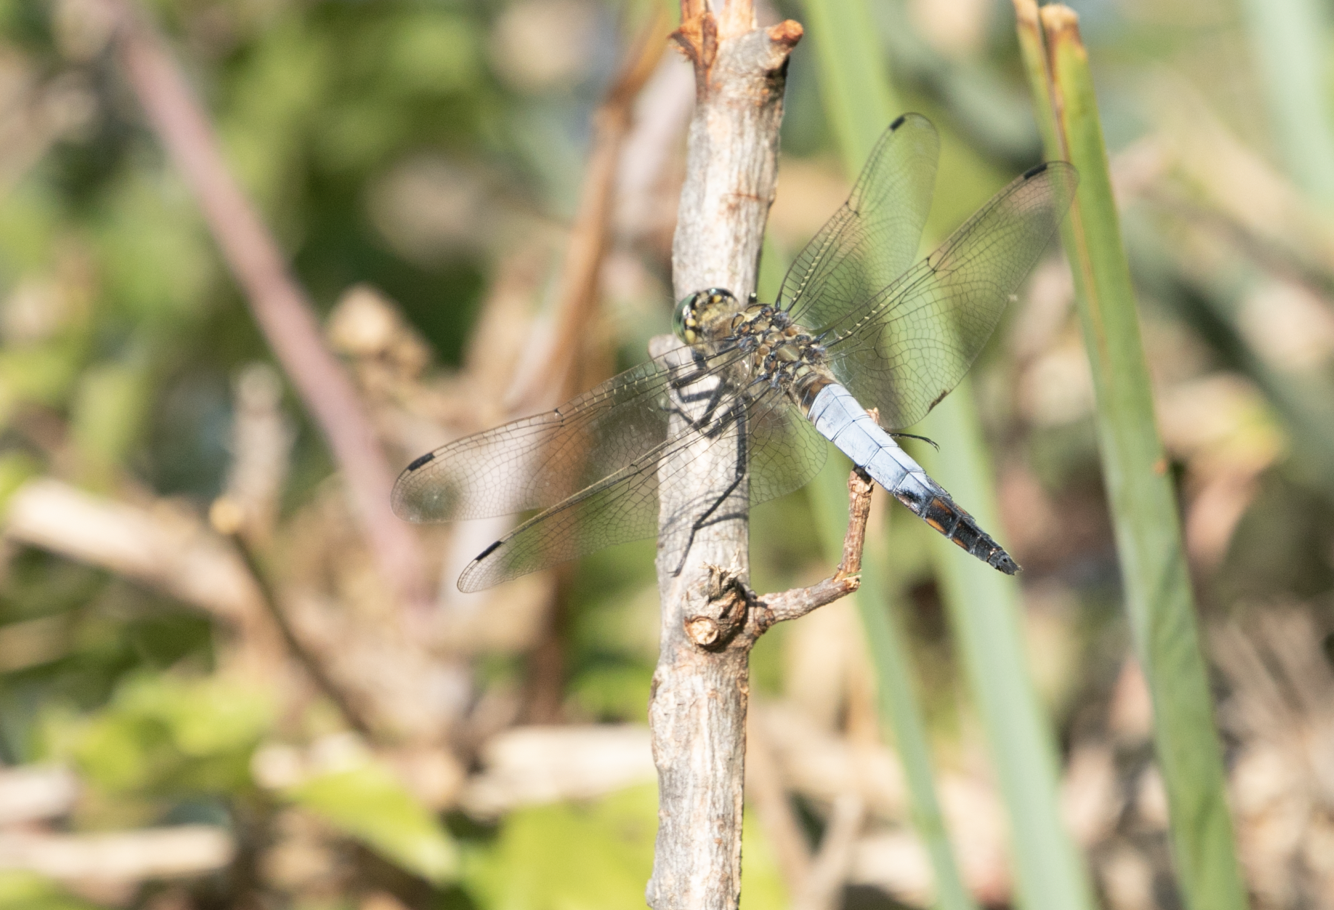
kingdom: Animalia
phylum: Arthropoda
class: Insecta
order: Odonata
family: Libellulidae
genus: Orthetrum
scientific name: Orthetrum cancellatum
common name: Black-tailed skimmer
